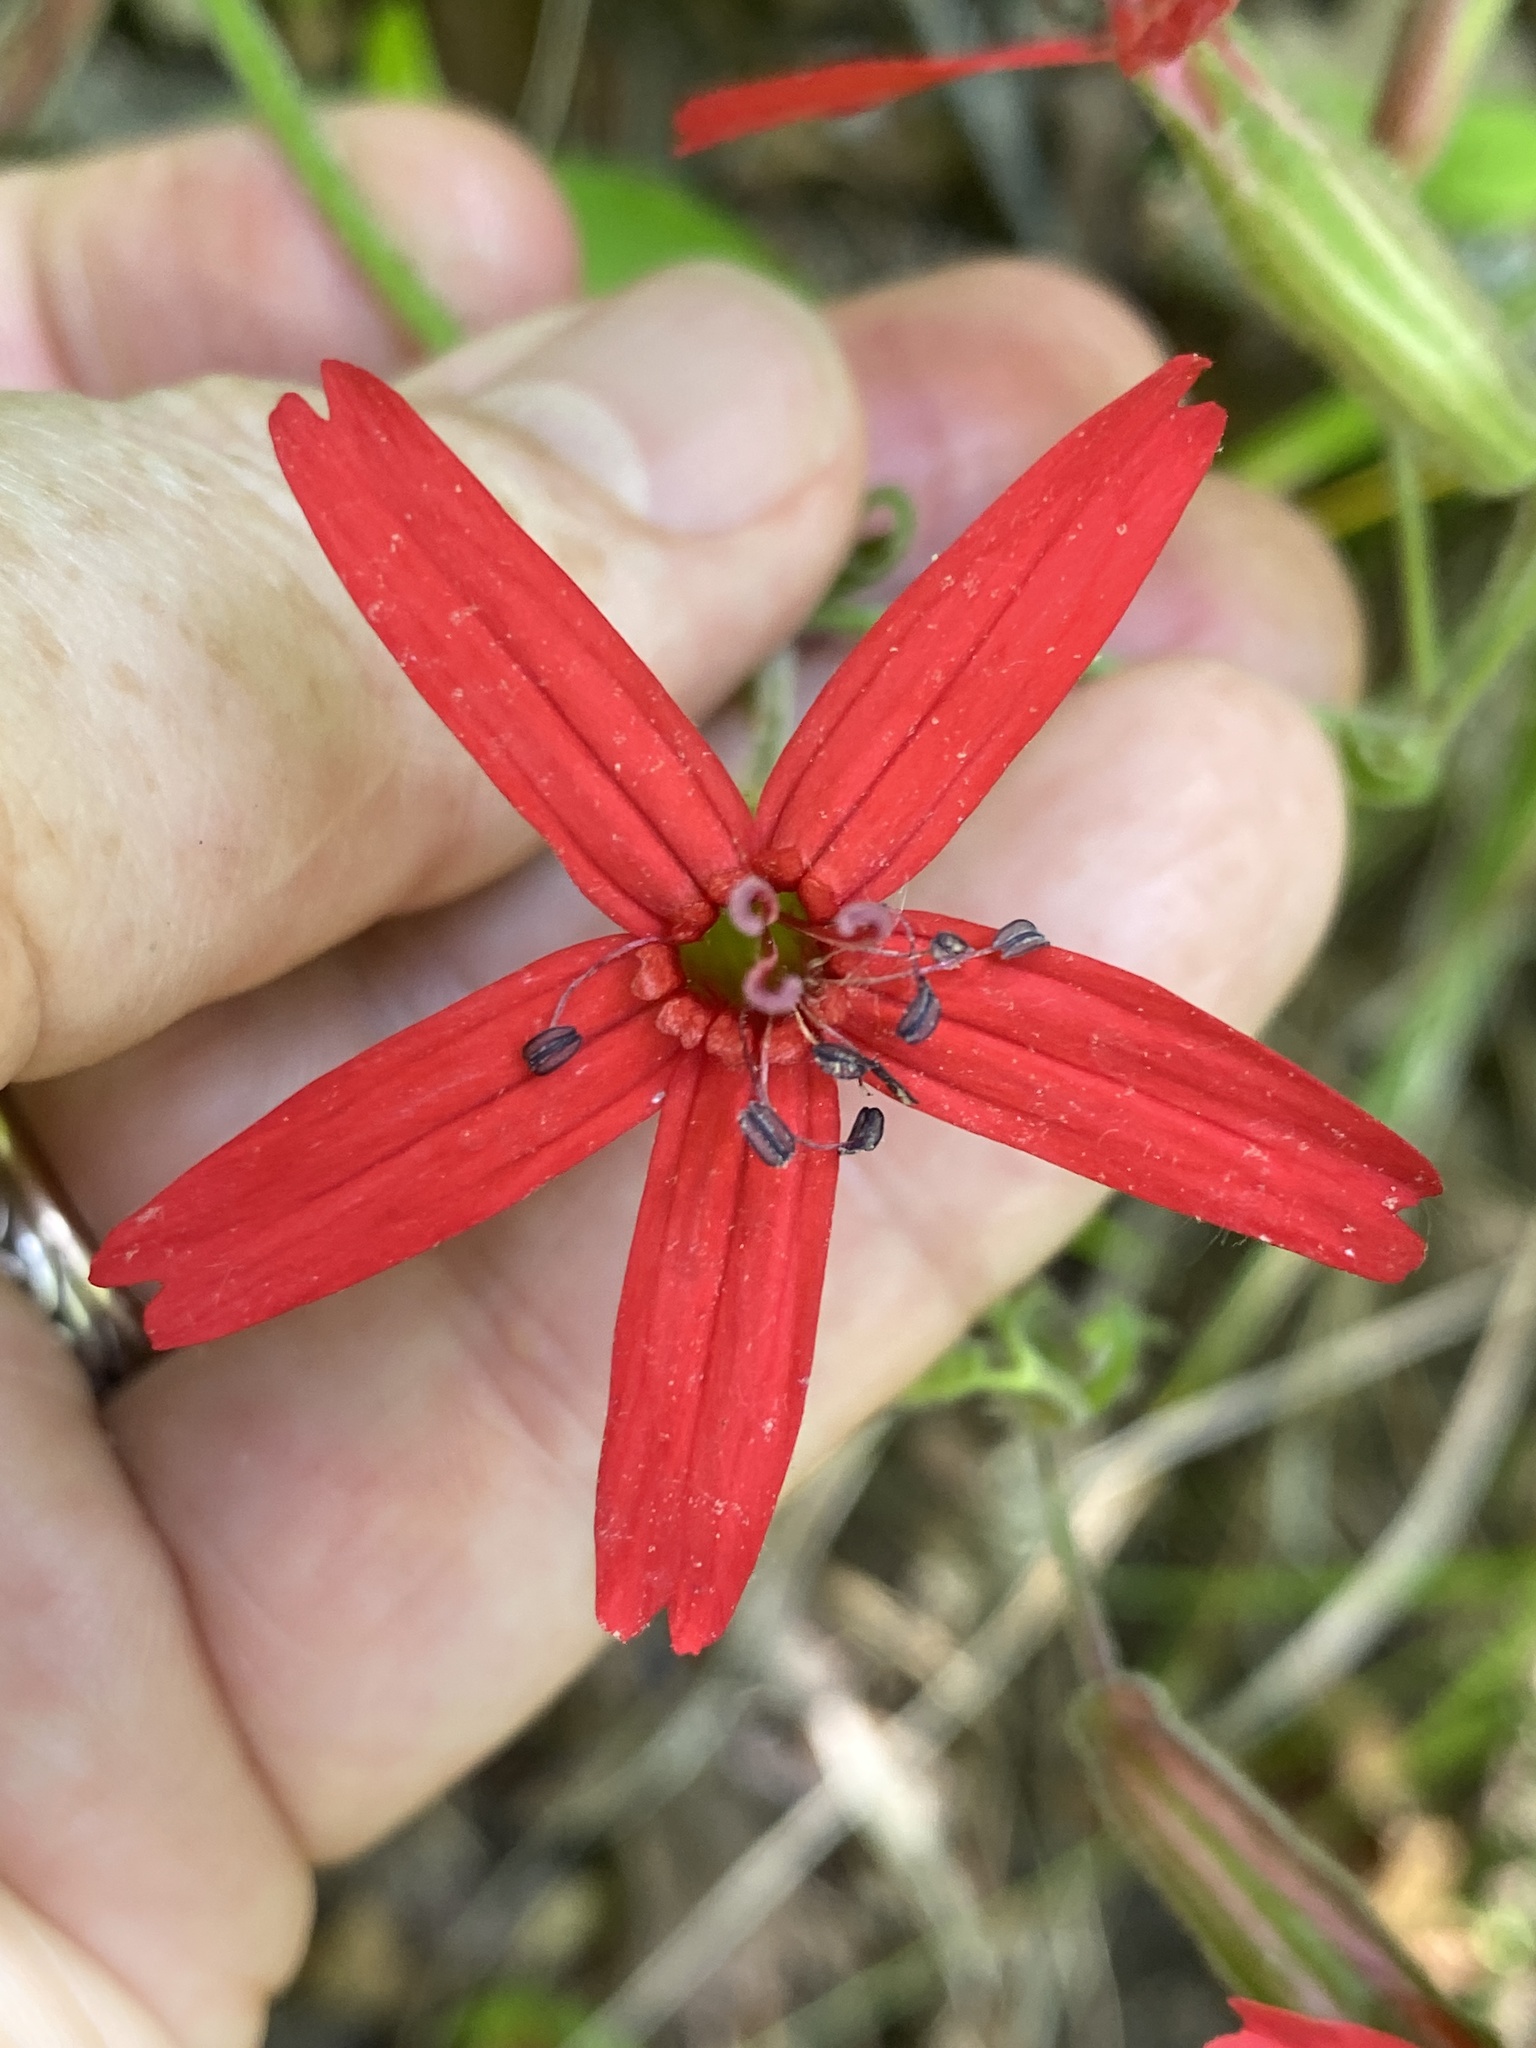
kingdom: Plantae
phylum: Tracheophyta
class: Magnoliopsida
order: Caryophyllales
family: Caryophyllaceae
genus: Silene
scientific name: Silene virginica
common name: Fire-pink
